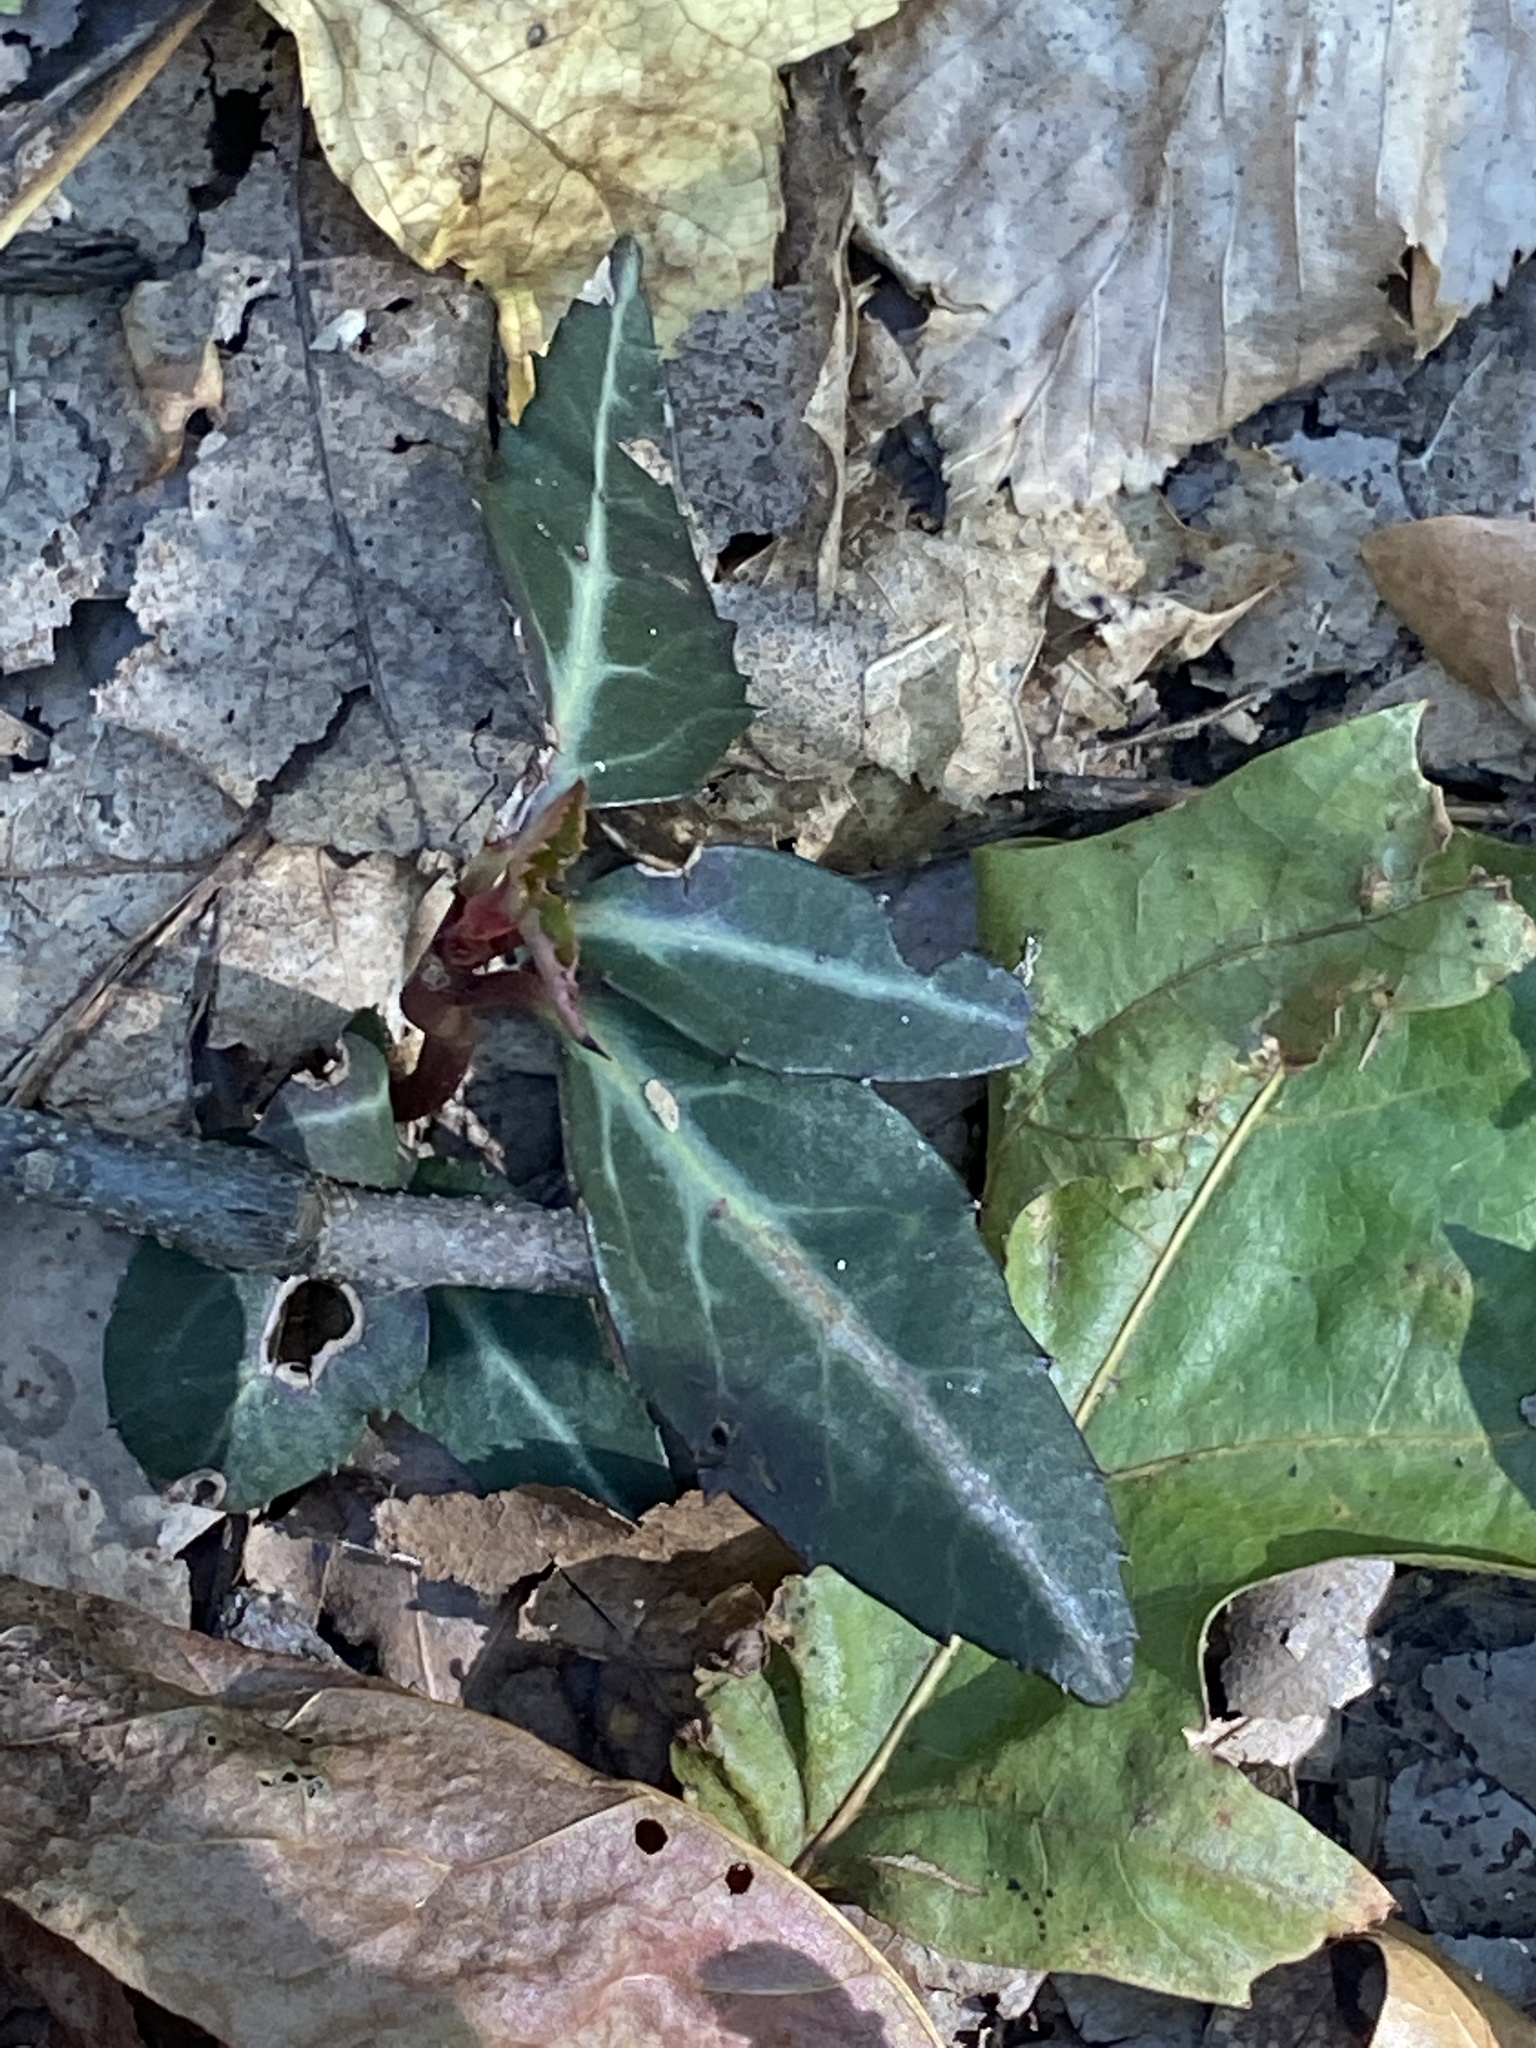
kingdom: Plantae
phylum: Tracheophyta
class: Magnoliopsida
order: Ericales
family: Ericaceae
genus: Chimaphila
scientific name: Chimaphila maculata
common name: Spotted pipsissewa
